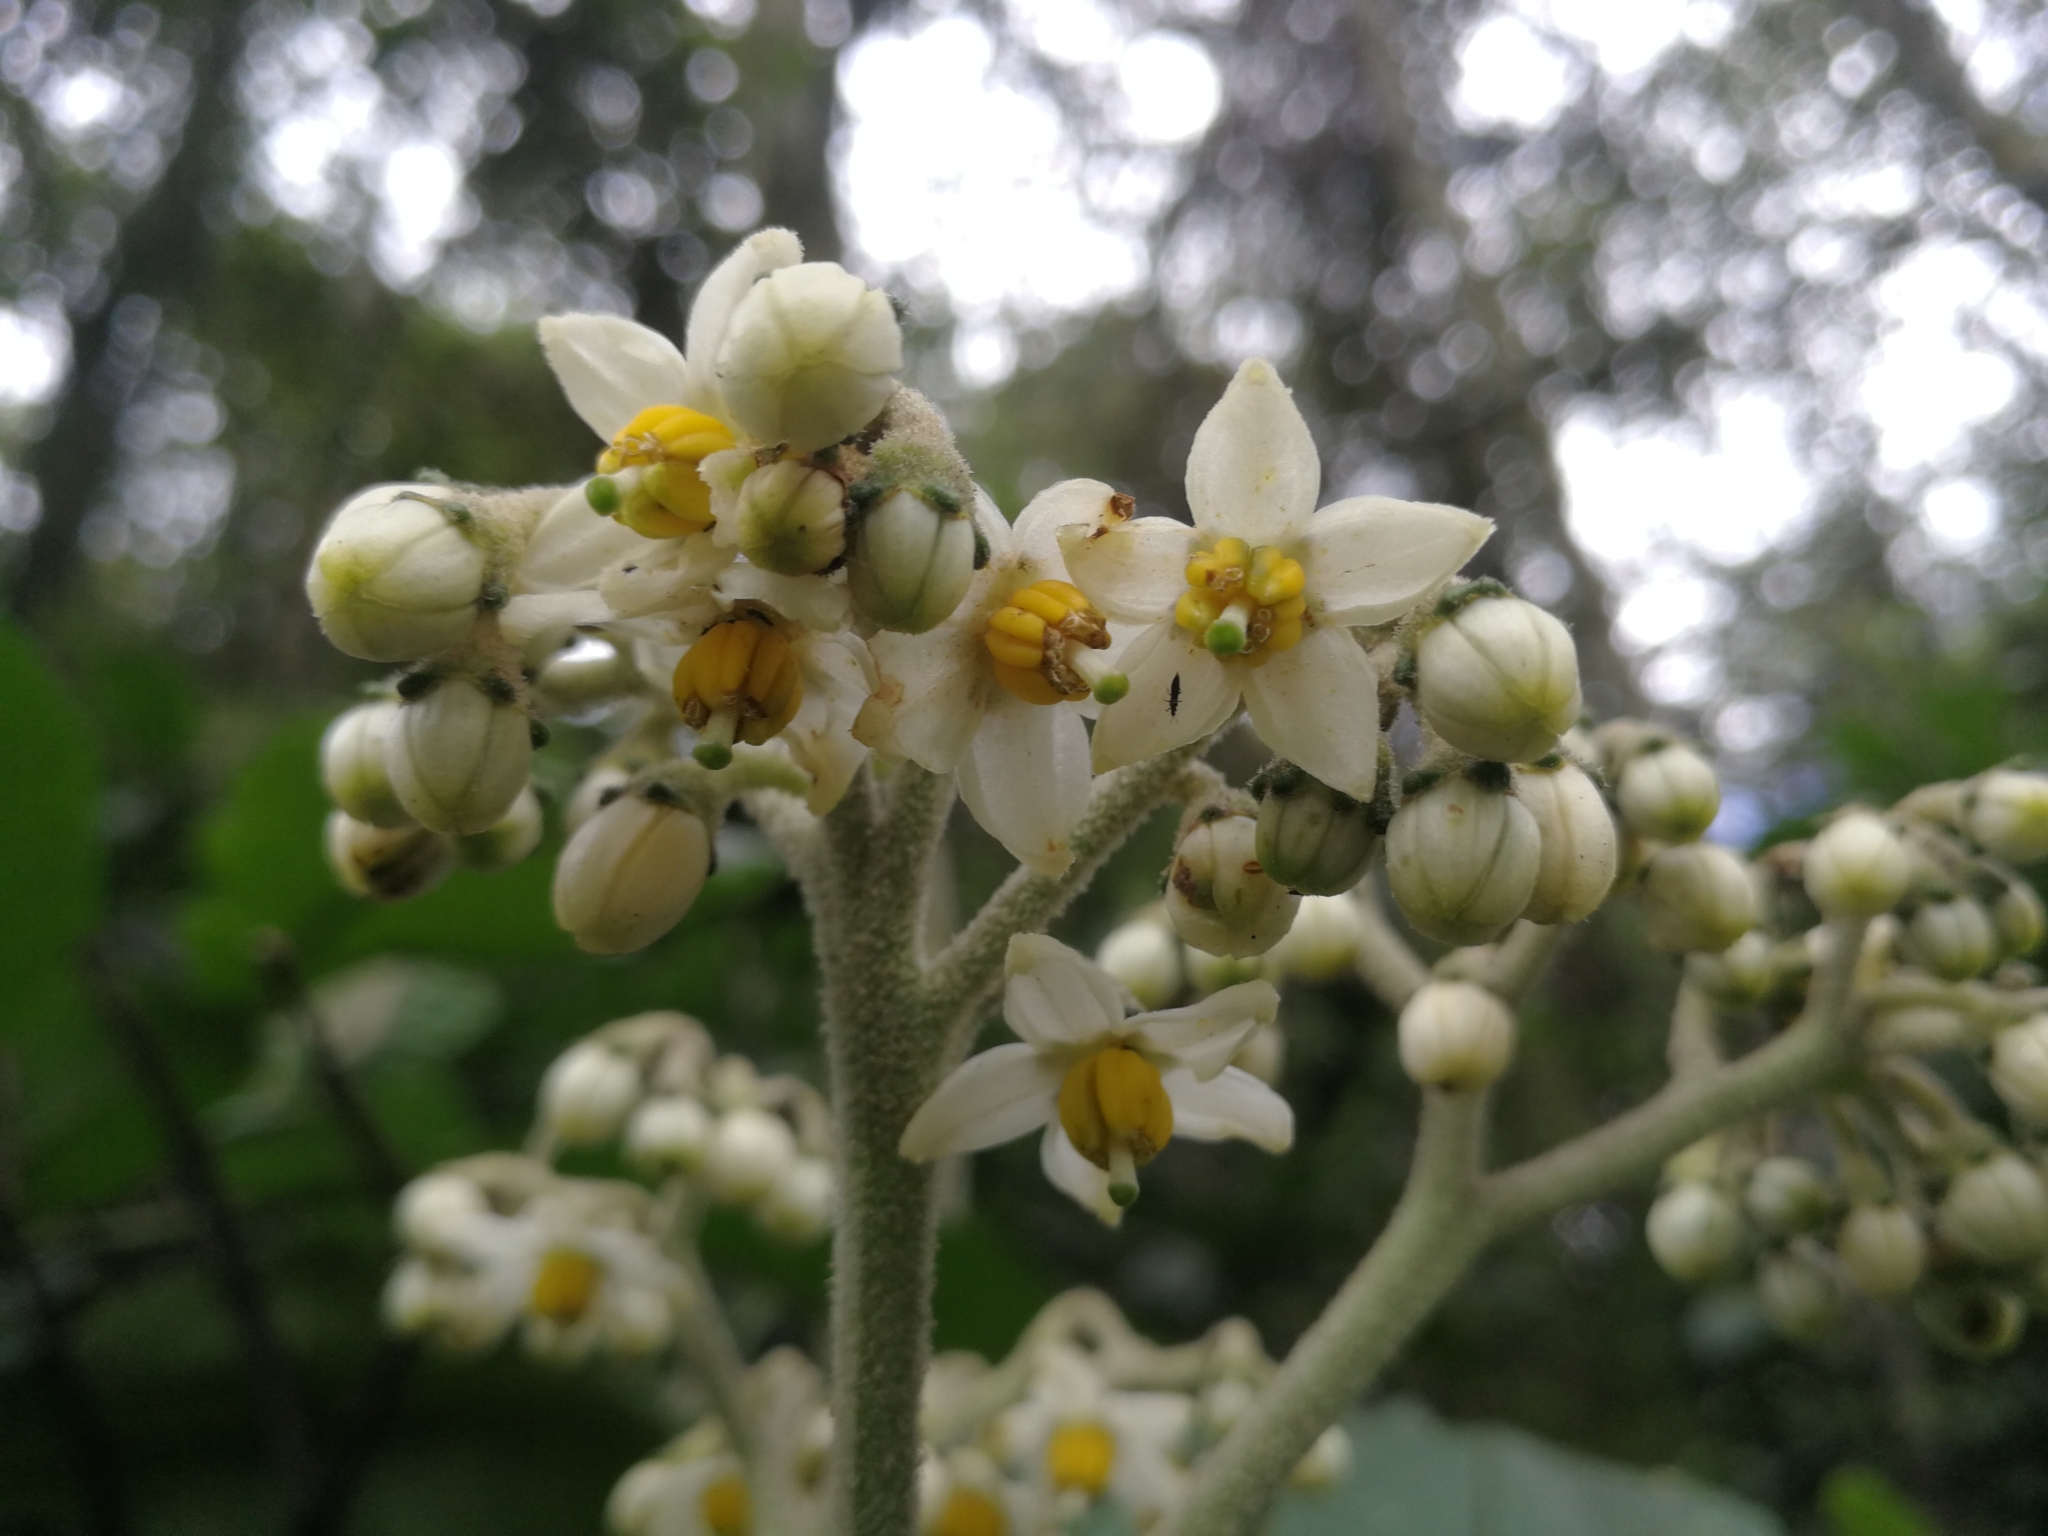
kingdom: Plantae
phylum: Tracheophyta
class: Magnoliopsida
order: Solanales
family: Solanaceae
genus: Solanum
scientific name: Solanum oblongifolium
